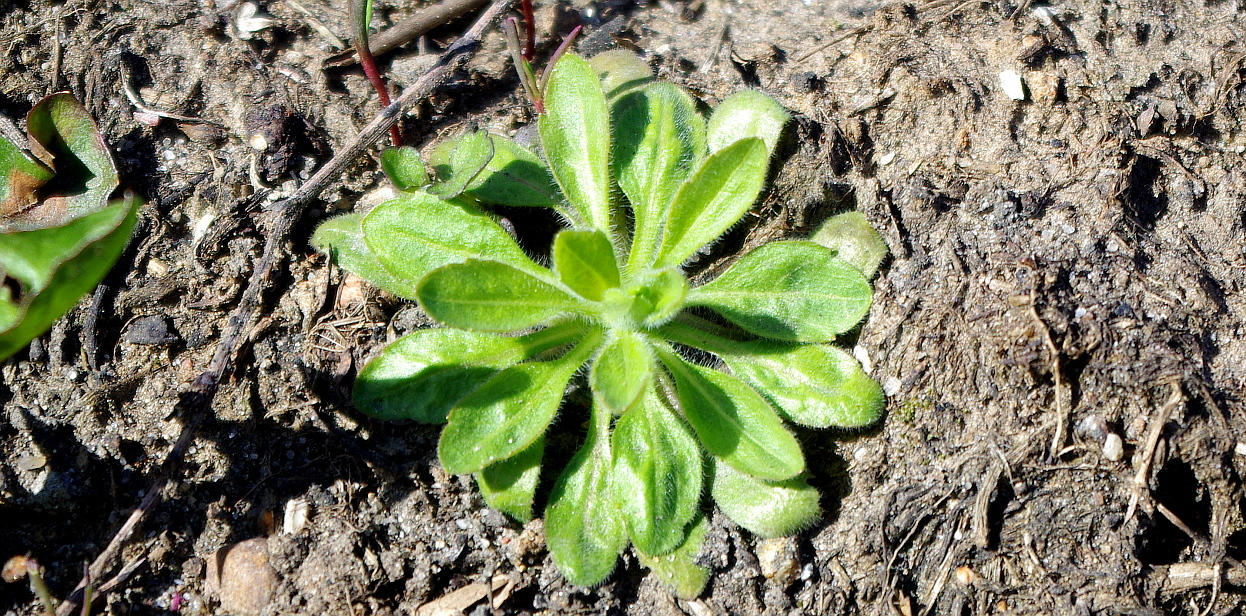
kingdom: Plantae
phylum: Tracheophyta
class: Magnoliopsida
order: Asterales
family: Asteraceae
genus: Erigeron
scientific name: Erigeron canadensis
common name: Canadian fleabane
